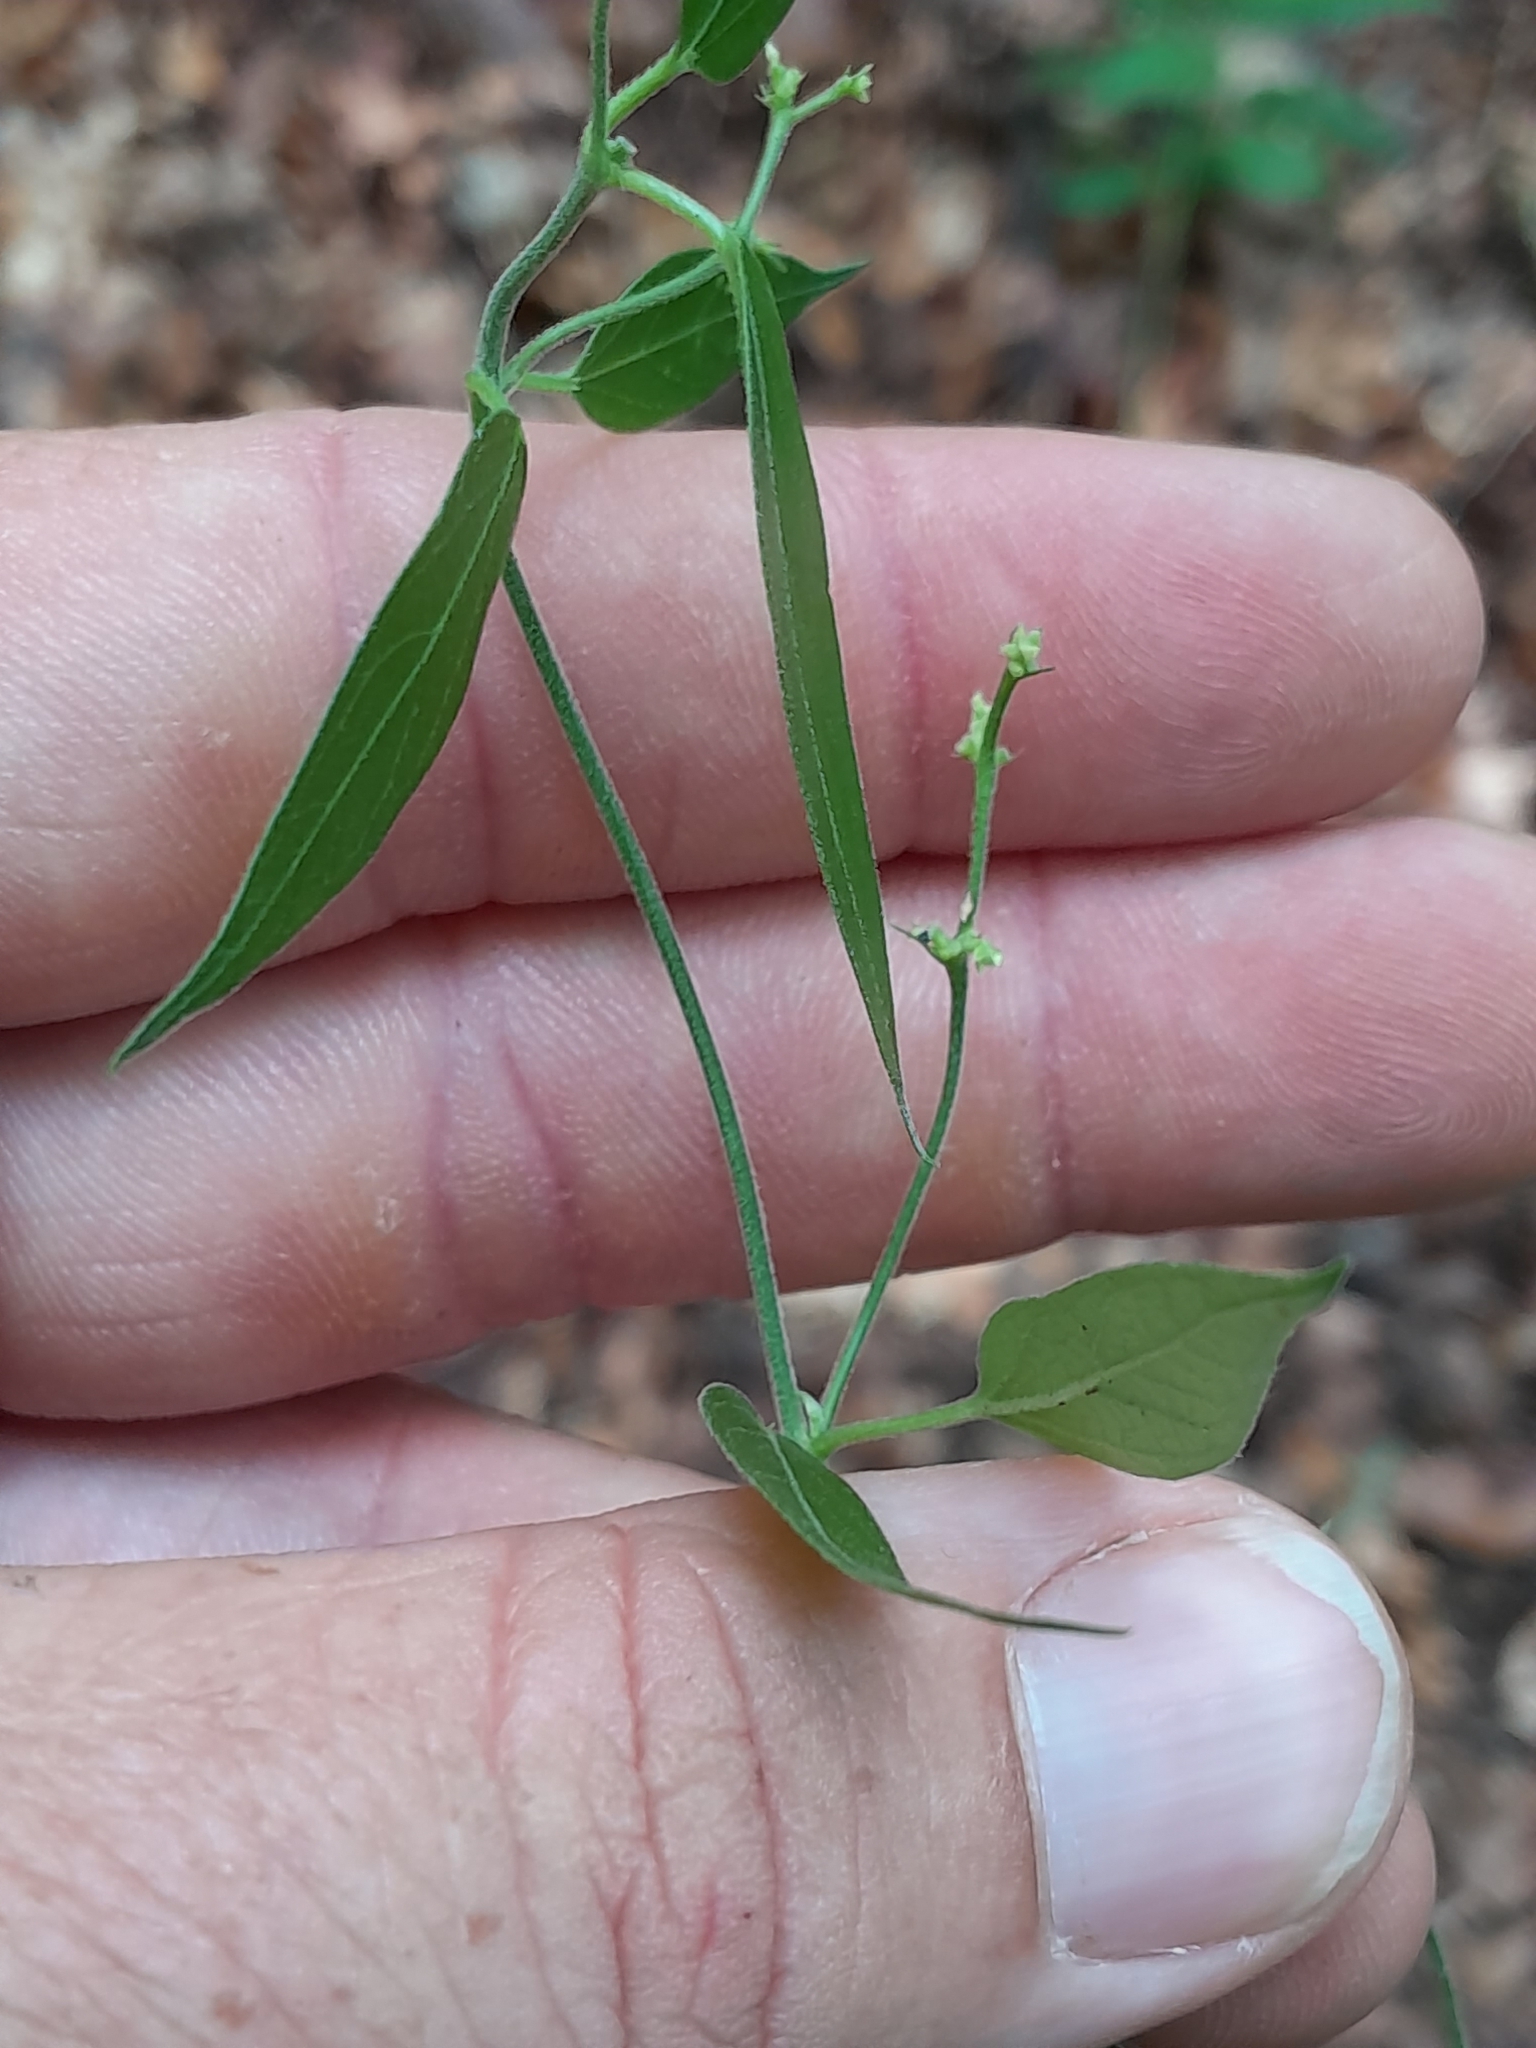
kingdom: Plantae
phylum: Tracheophyta
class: Magnoliopsida
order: Gentianales
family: Apocynaceae
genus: Vincetoxicum
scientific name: Vincetoxicum hirundinaria
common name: White swallowwort
